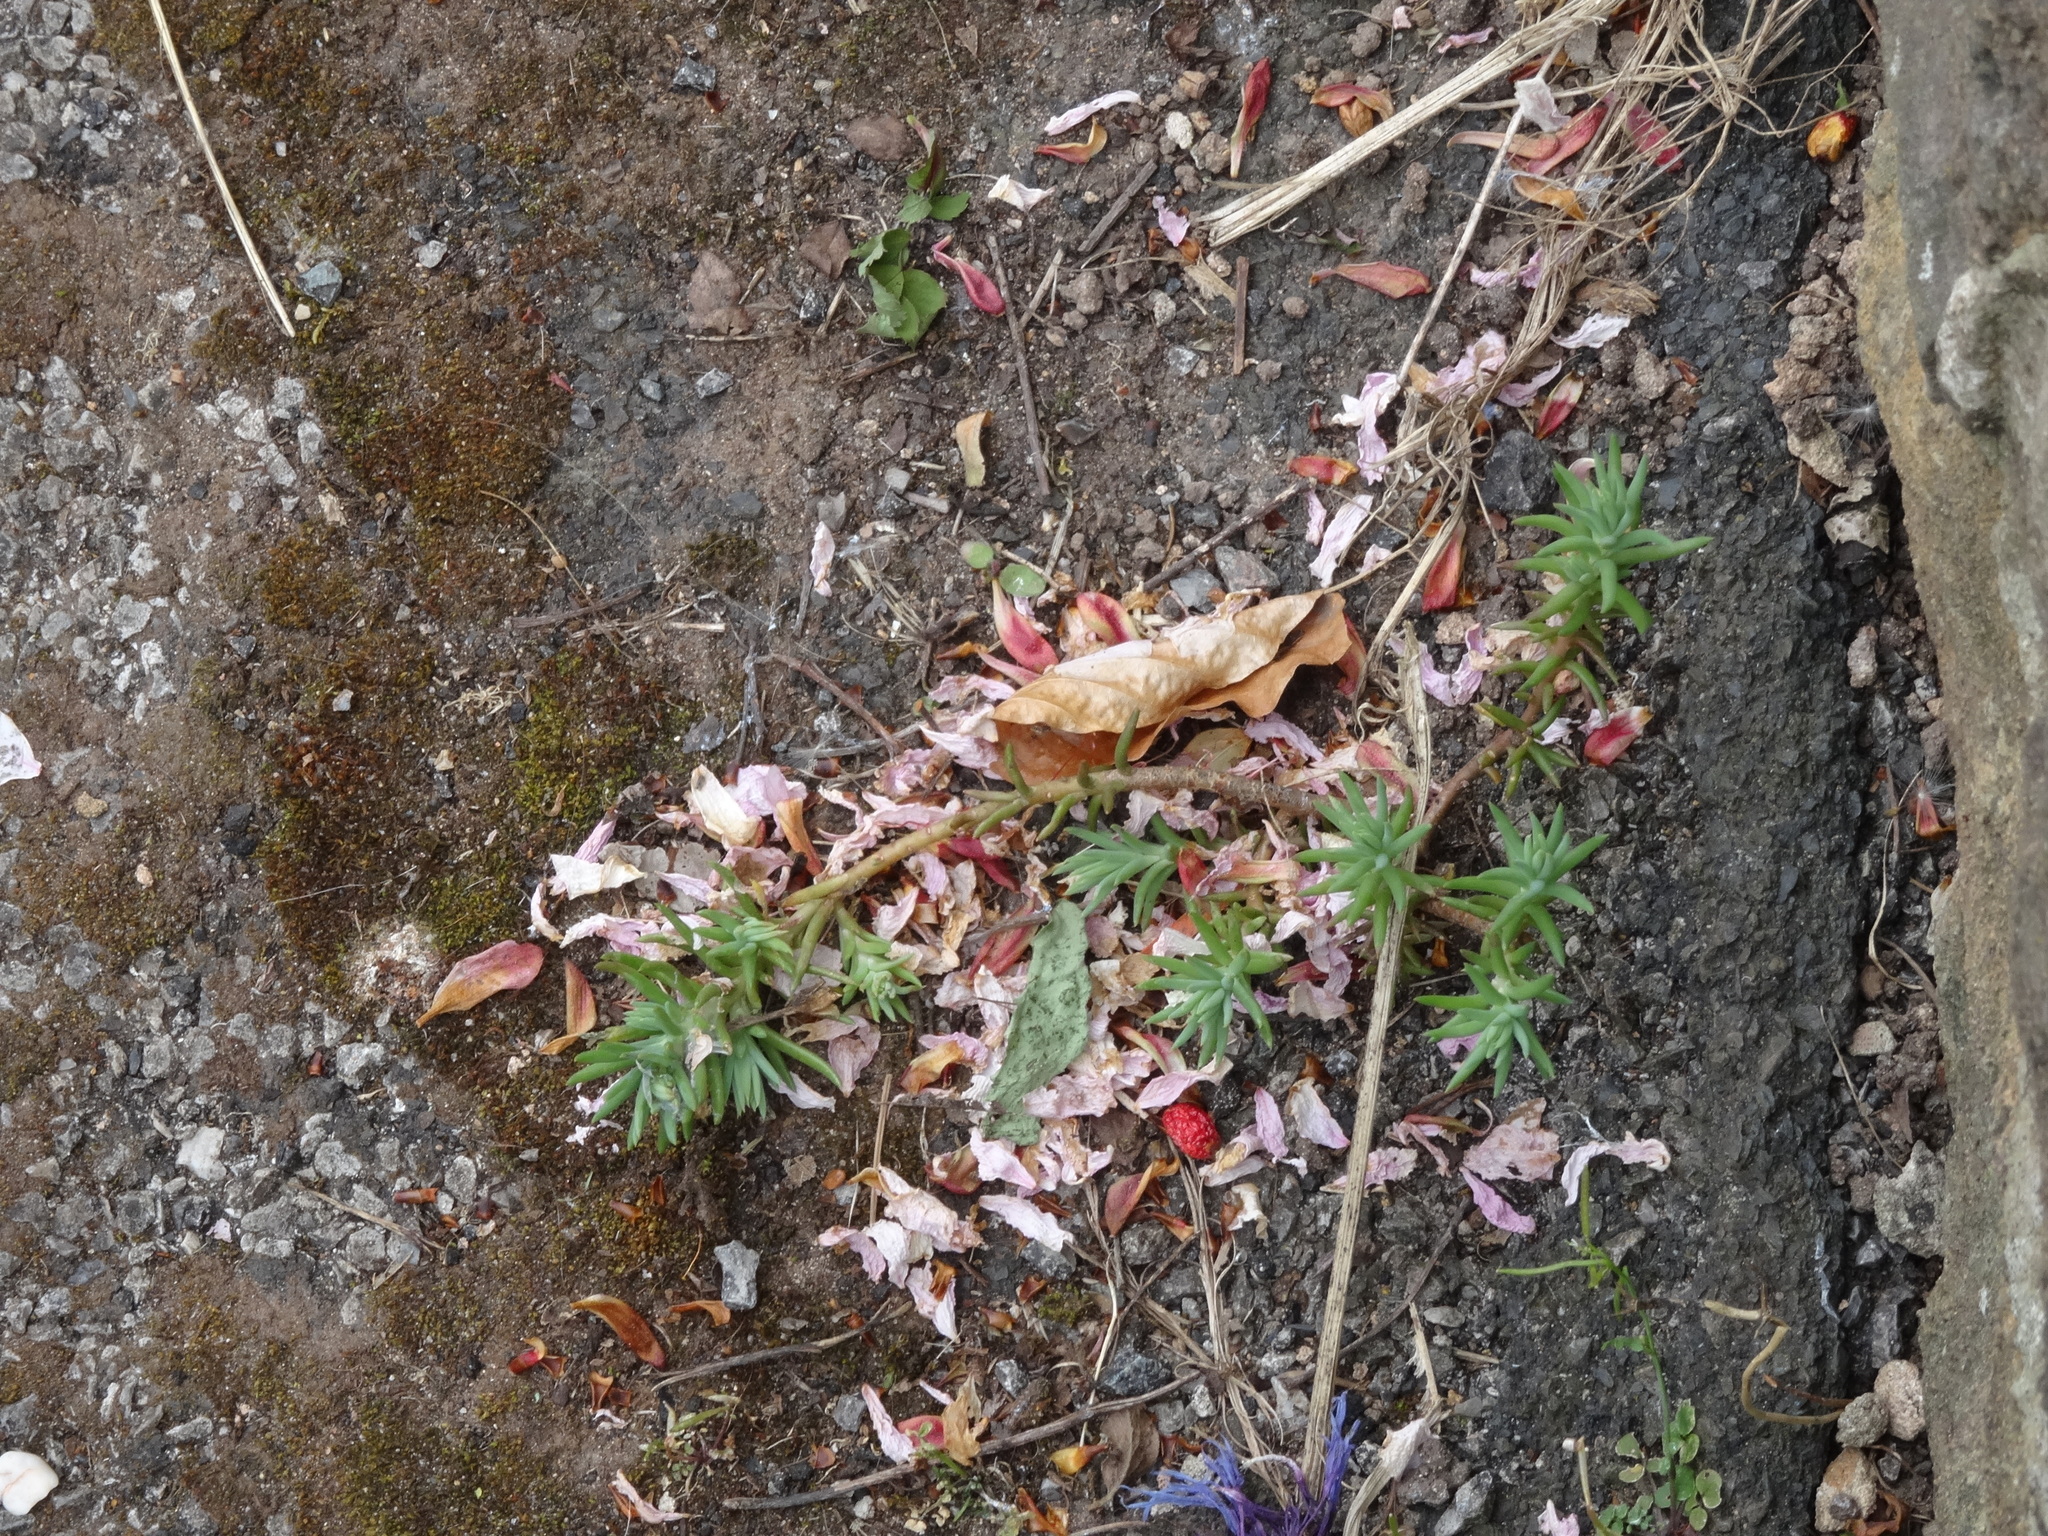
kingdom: Plantae
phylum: Tracheophyta
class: Magnoliopsida
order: Saxifragales
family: Crassulaceae
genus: Petrosedum
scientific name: Petrosedum rupestre
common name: Jenny's stonecrop
